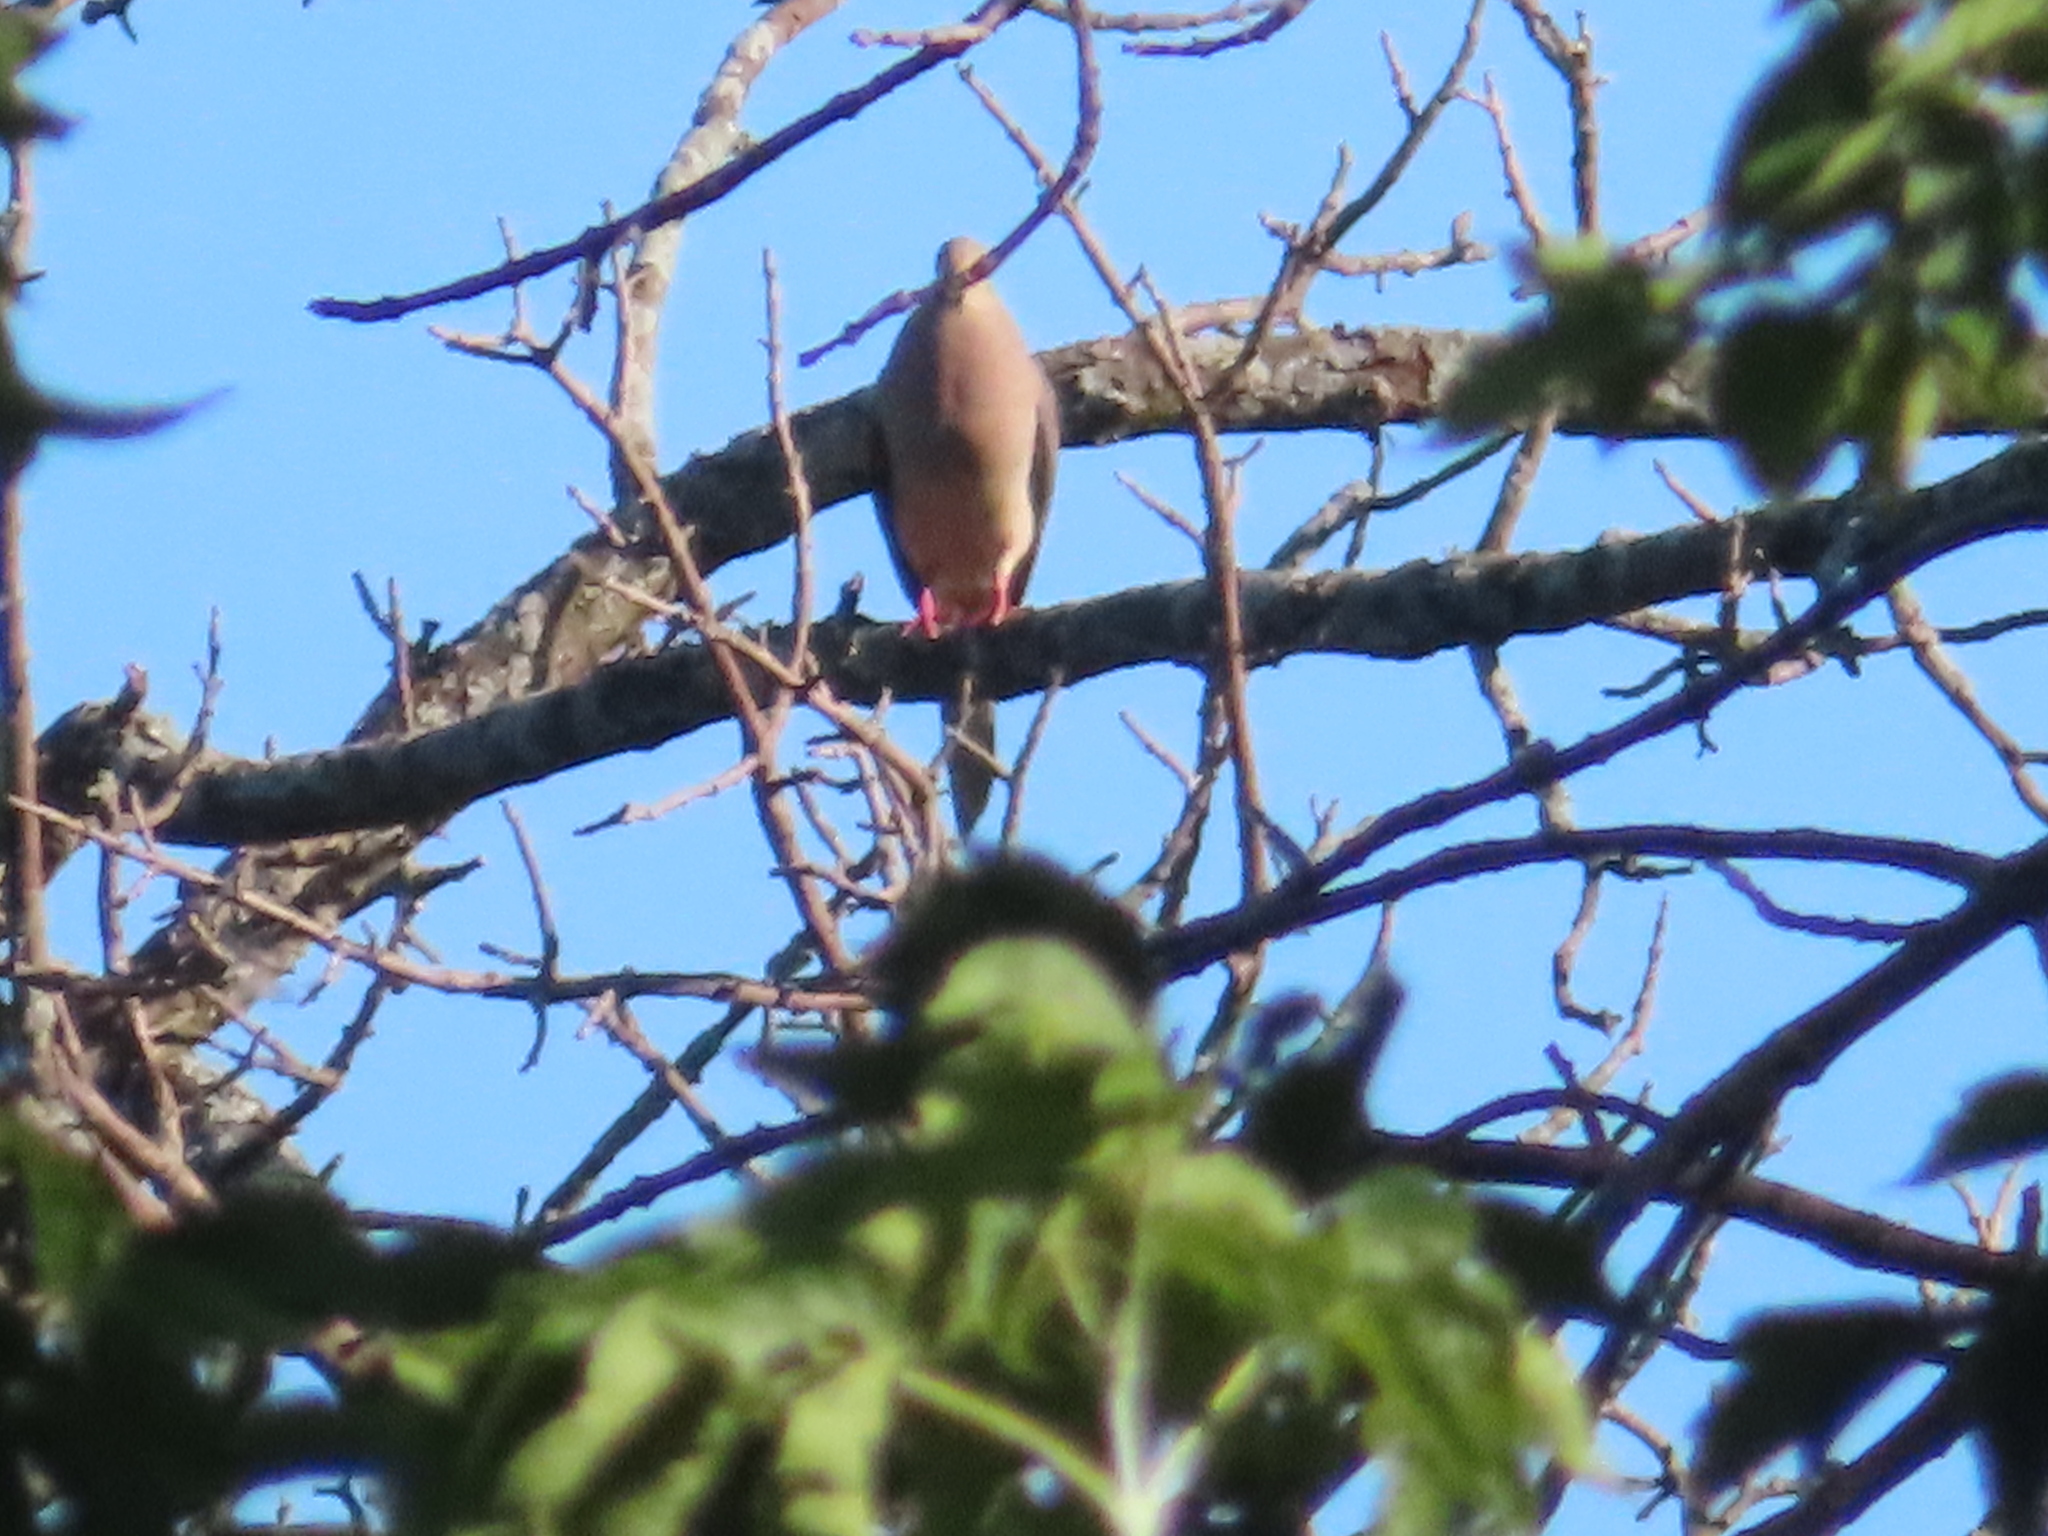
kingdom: Animalia
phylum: Chordata
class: Aves
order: Columbiformes
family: Columbidae
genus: Zenaida
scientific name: Zenaida macroura
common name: Mourning dove
